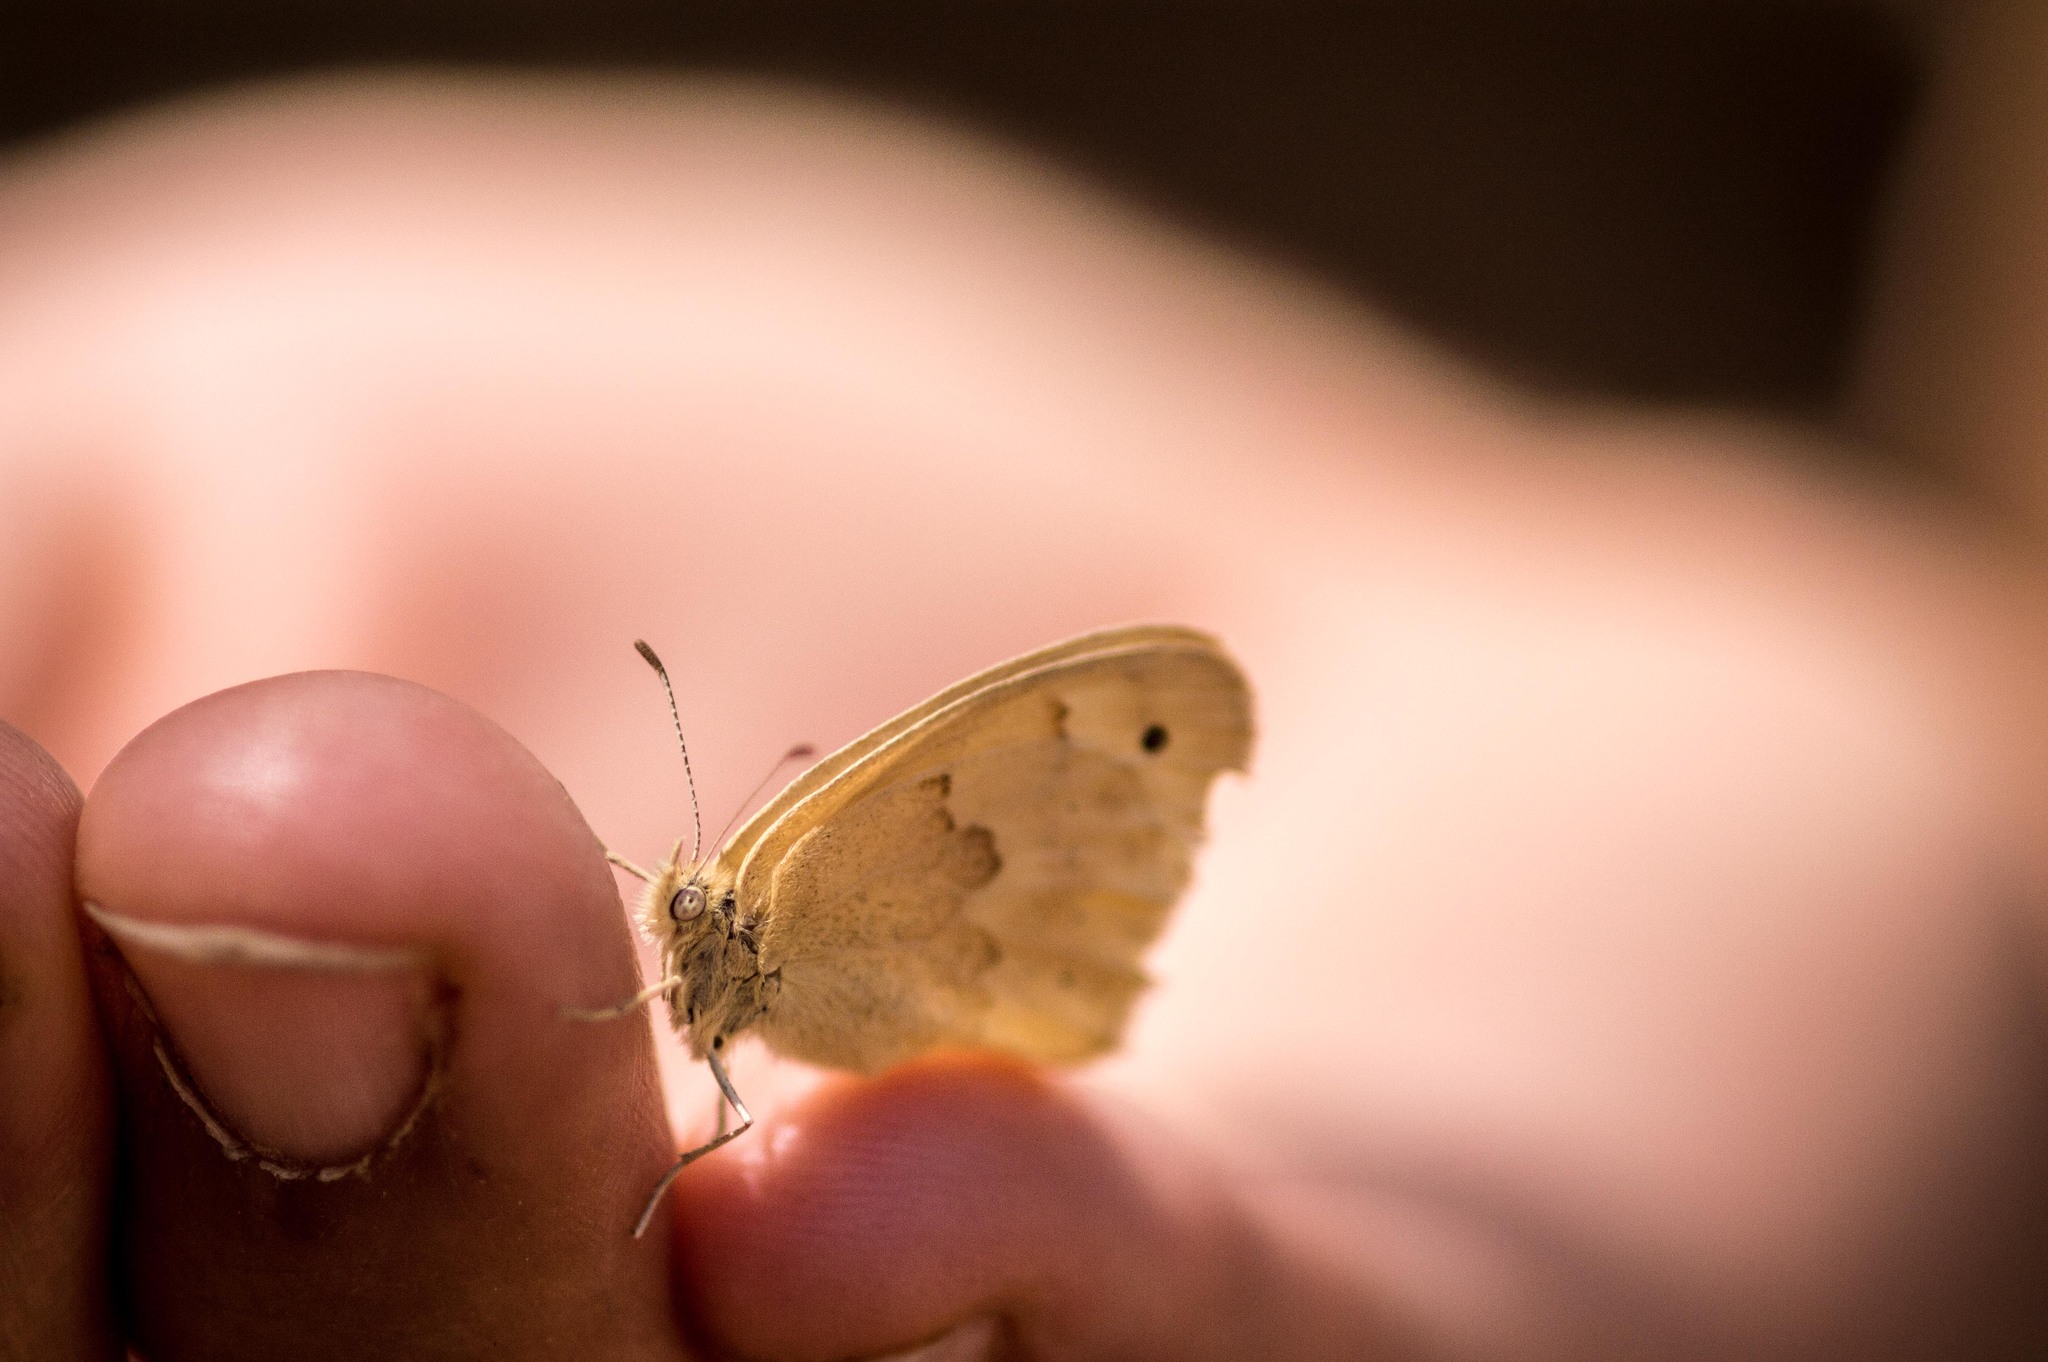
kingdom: Animalia
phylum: Arthropoda
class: Insecta
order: Lepidoptera
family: Nymphalidae
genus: Coenonympha
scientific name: Coenonympha california
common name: Common ringlet
